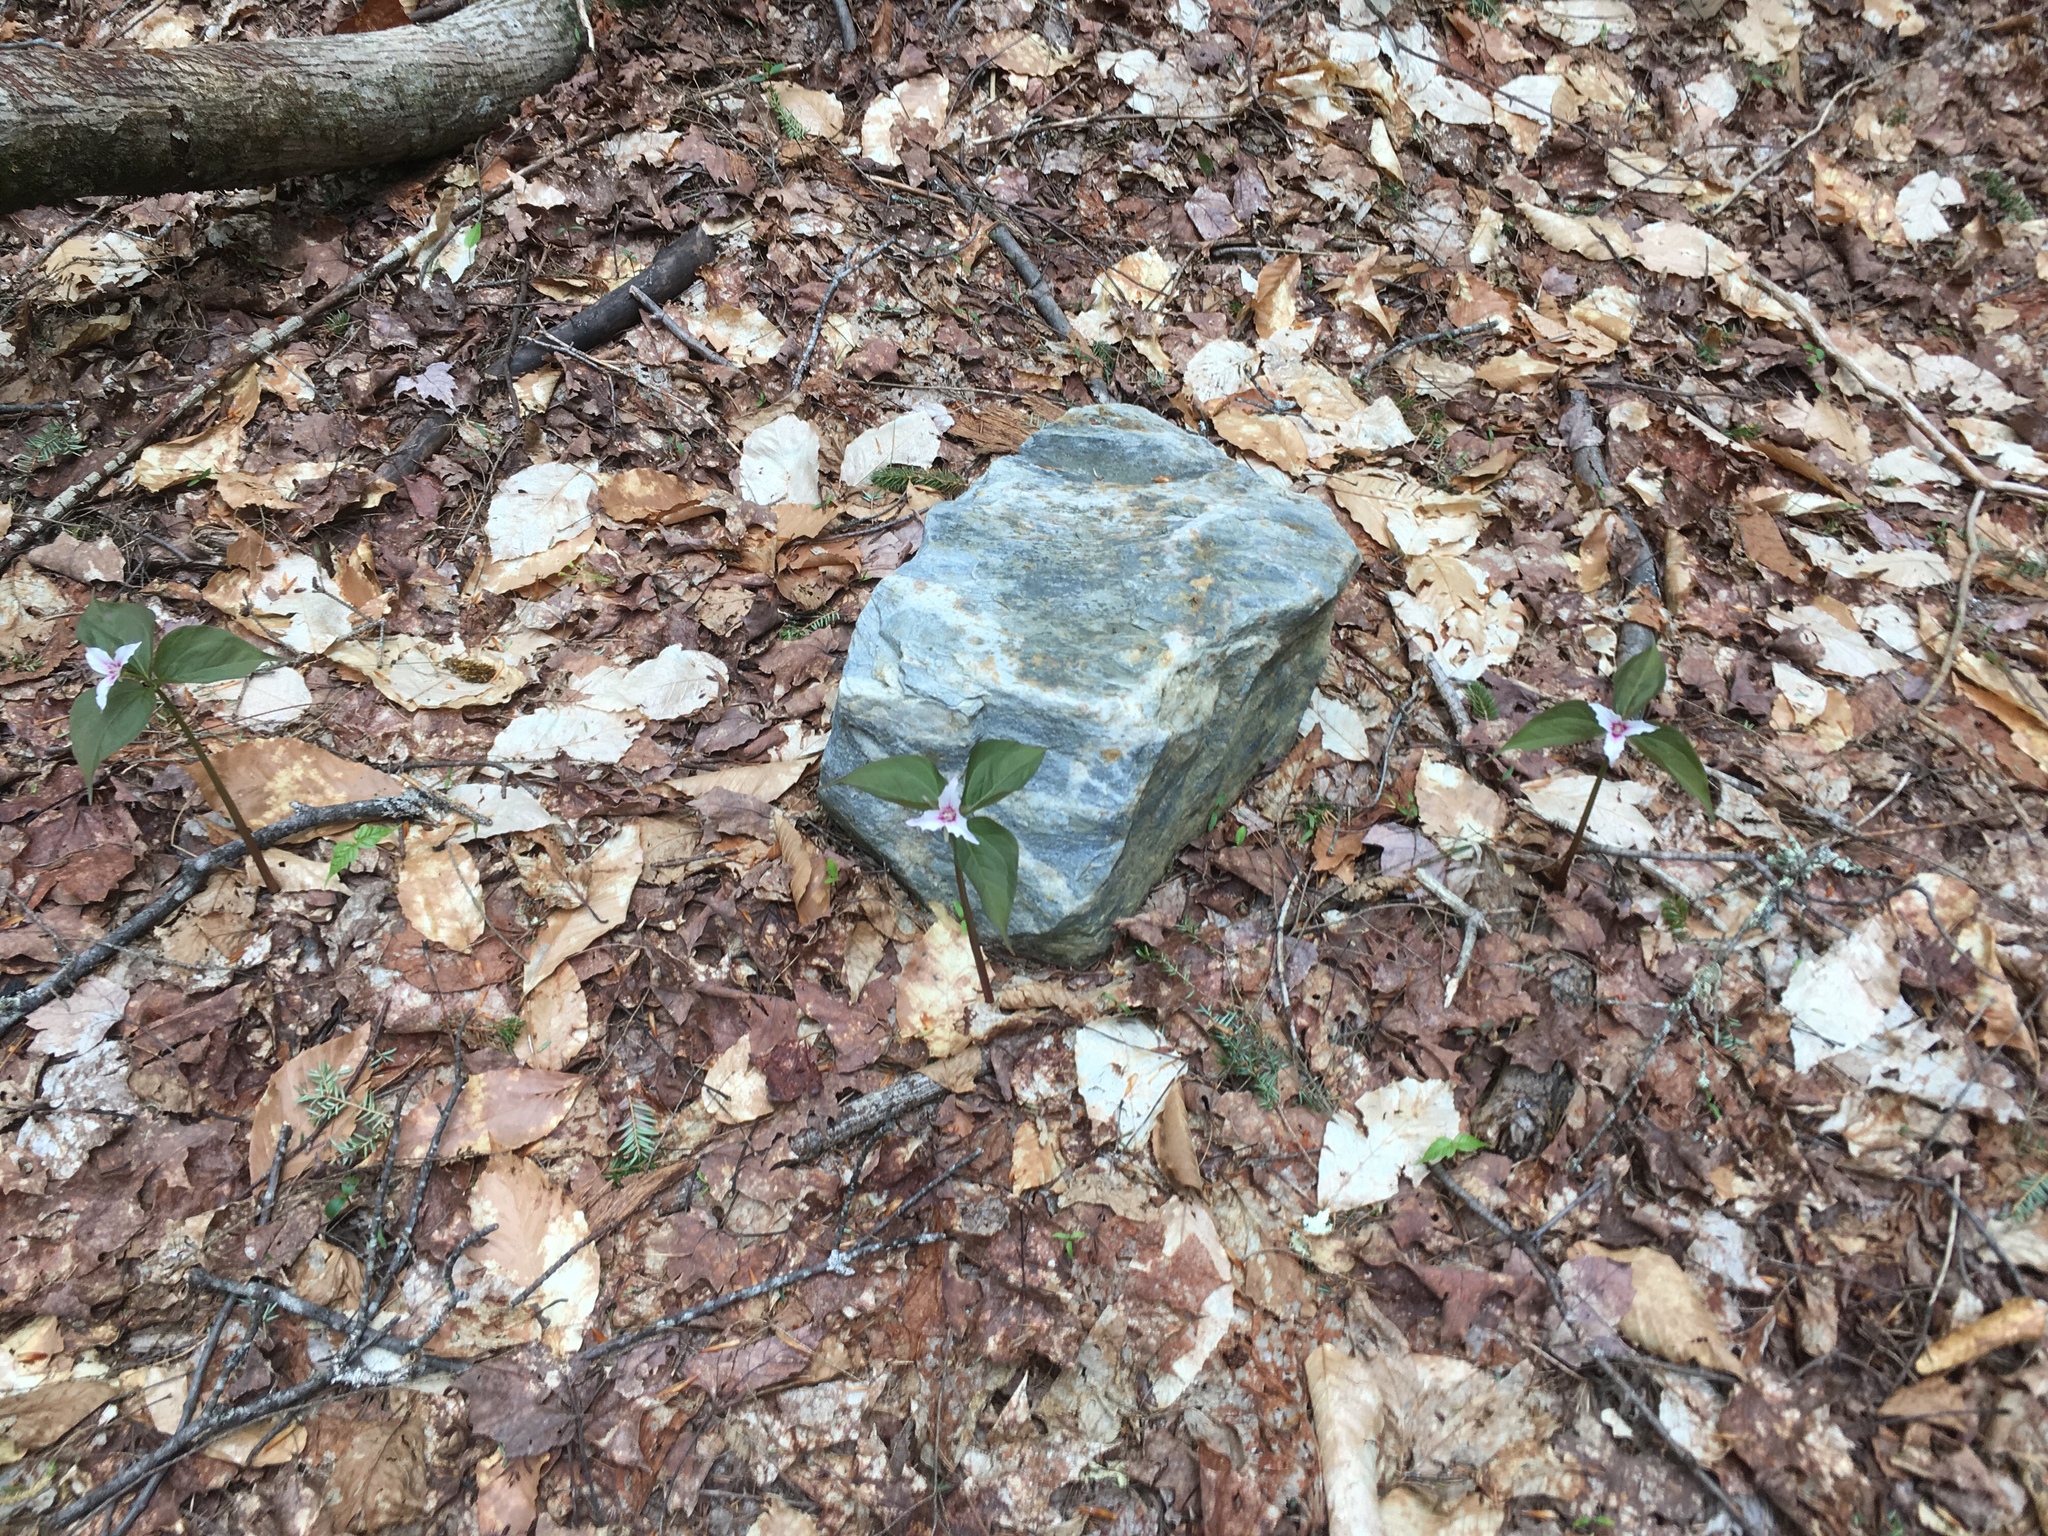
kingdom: Plantae
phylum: Tracheophyta
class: Liliopsida
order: Liliales
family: Melanthiaceae
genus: Trillium
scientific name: Trillium undulatum
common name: Paint trillium
